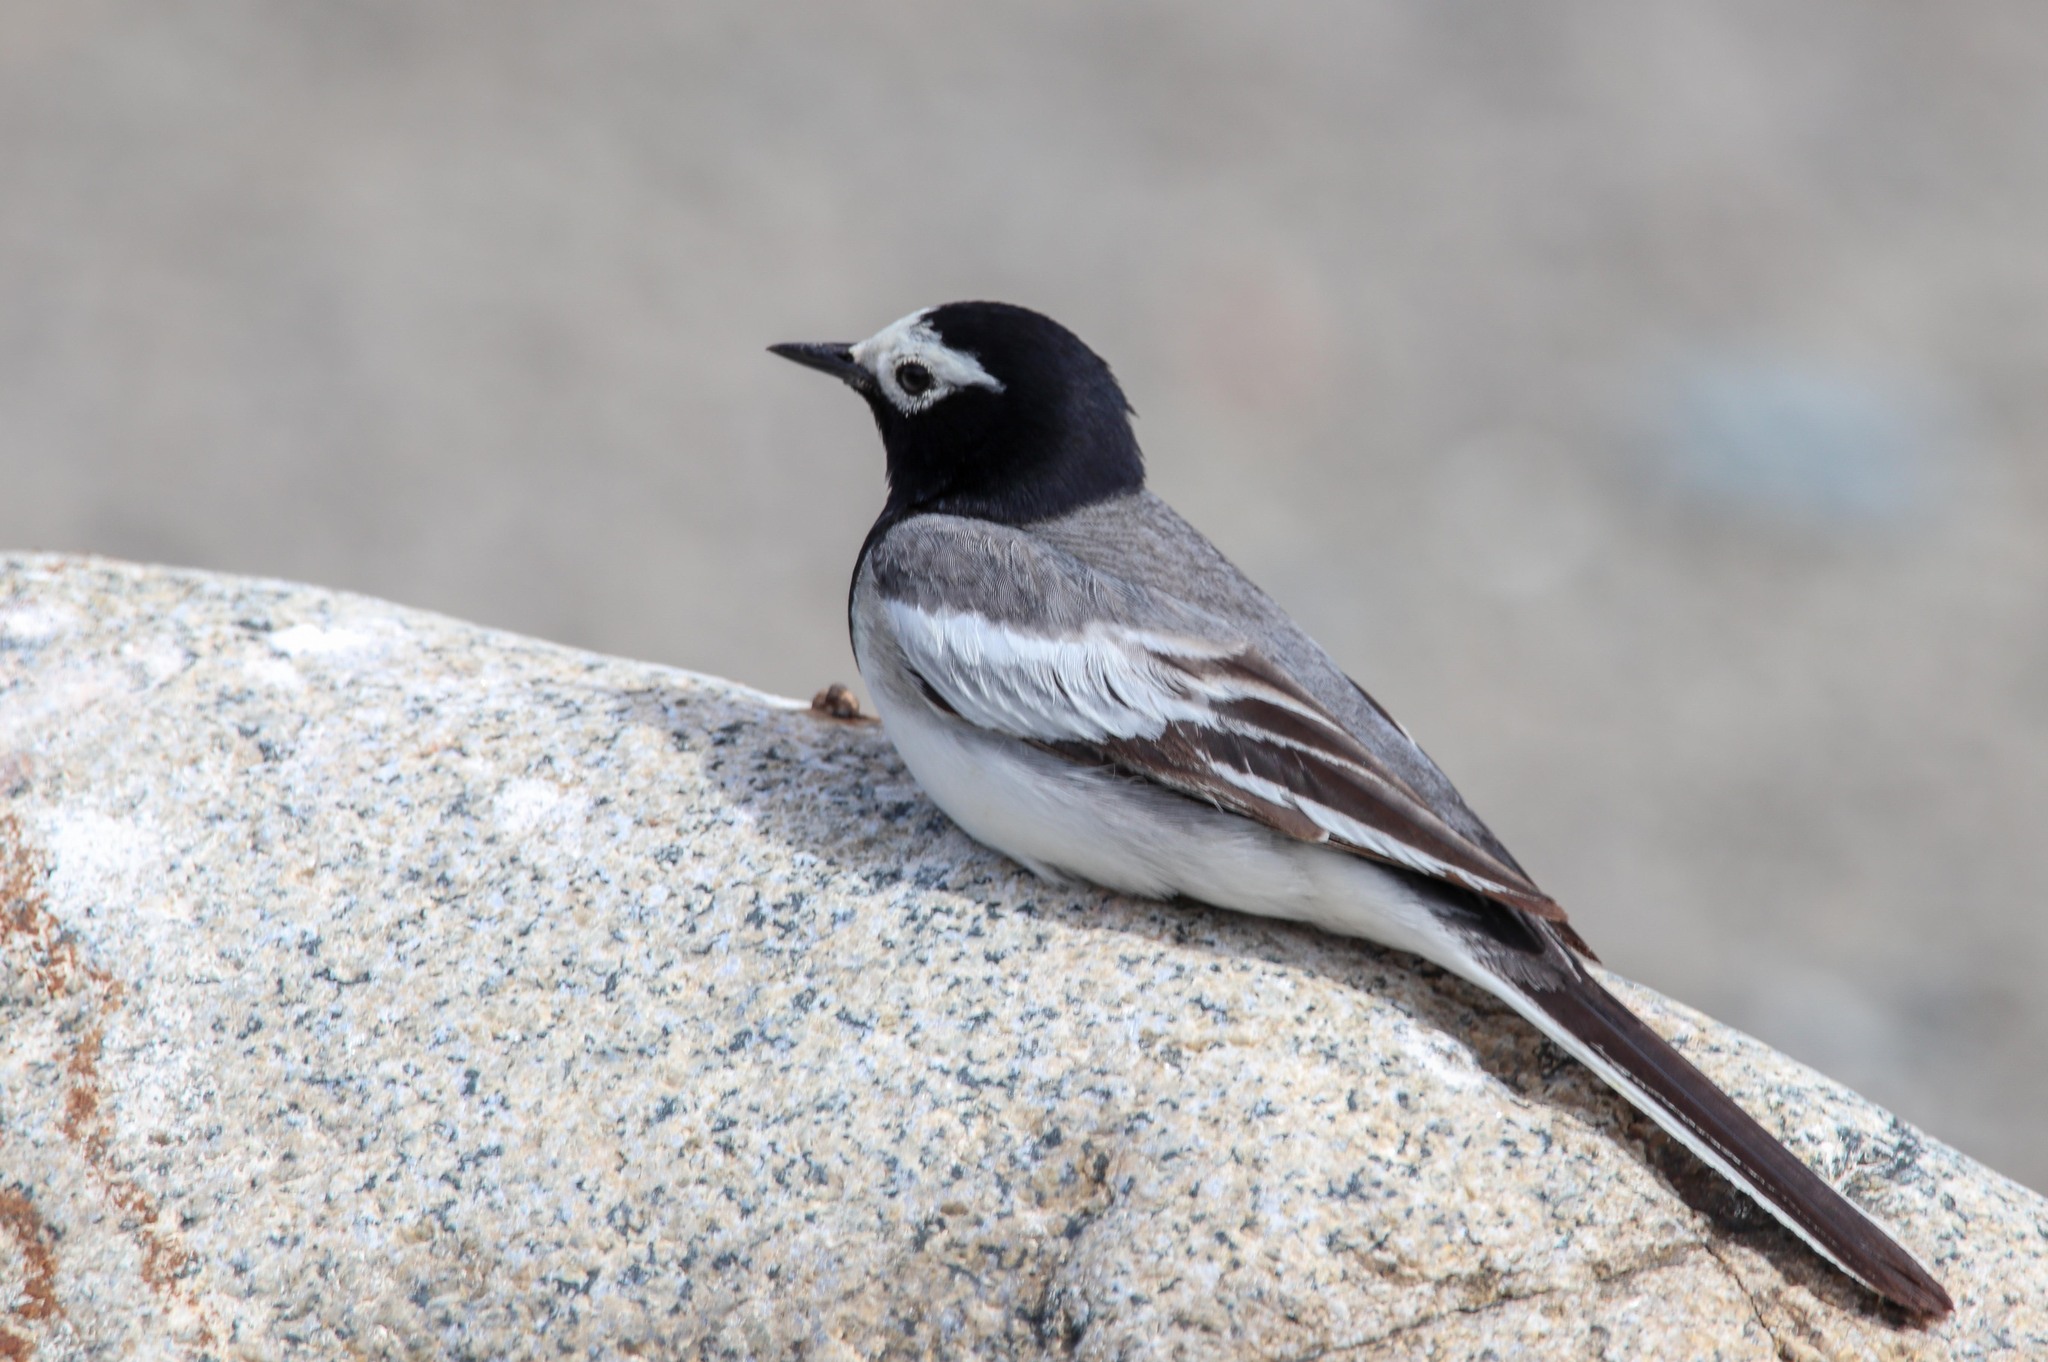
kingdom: Animalia
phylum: Chordata
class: Aves
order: Passeriformes
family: Motacillidae
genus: Motacilla
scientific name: Motacilla alba
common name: White wagtail
